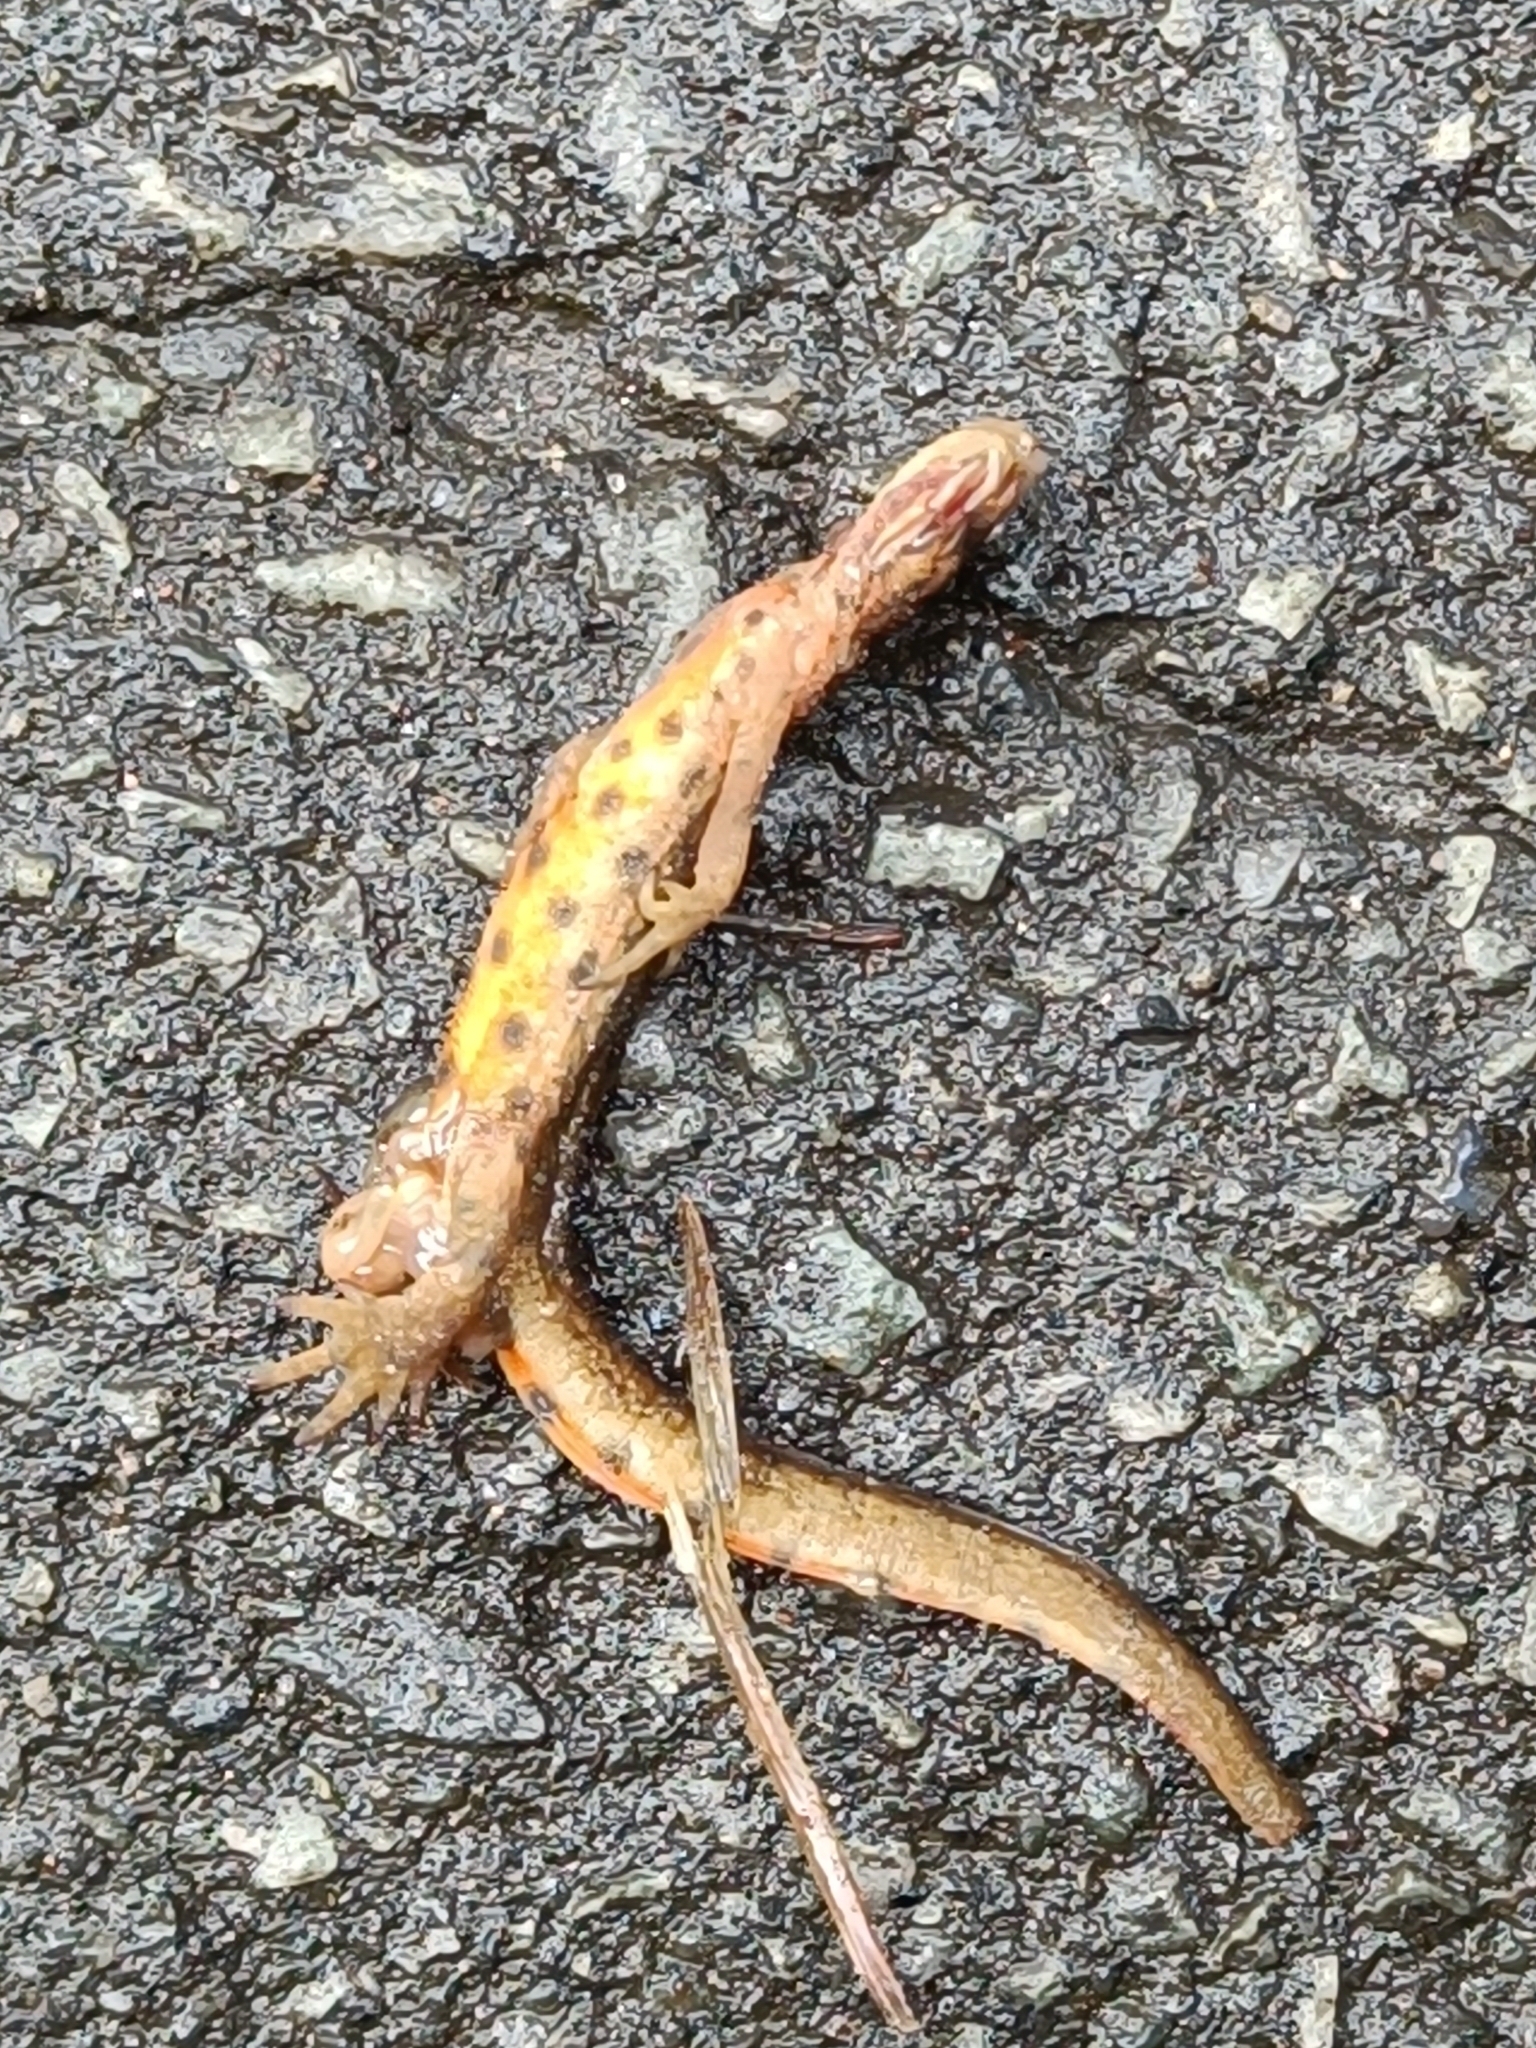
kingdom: Animalia
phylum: Chordata
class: Amphibia
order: Caudata
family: Salamandridae
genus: Lissotriton
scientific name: Lissotriton vulgaris
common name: Smooth newt
